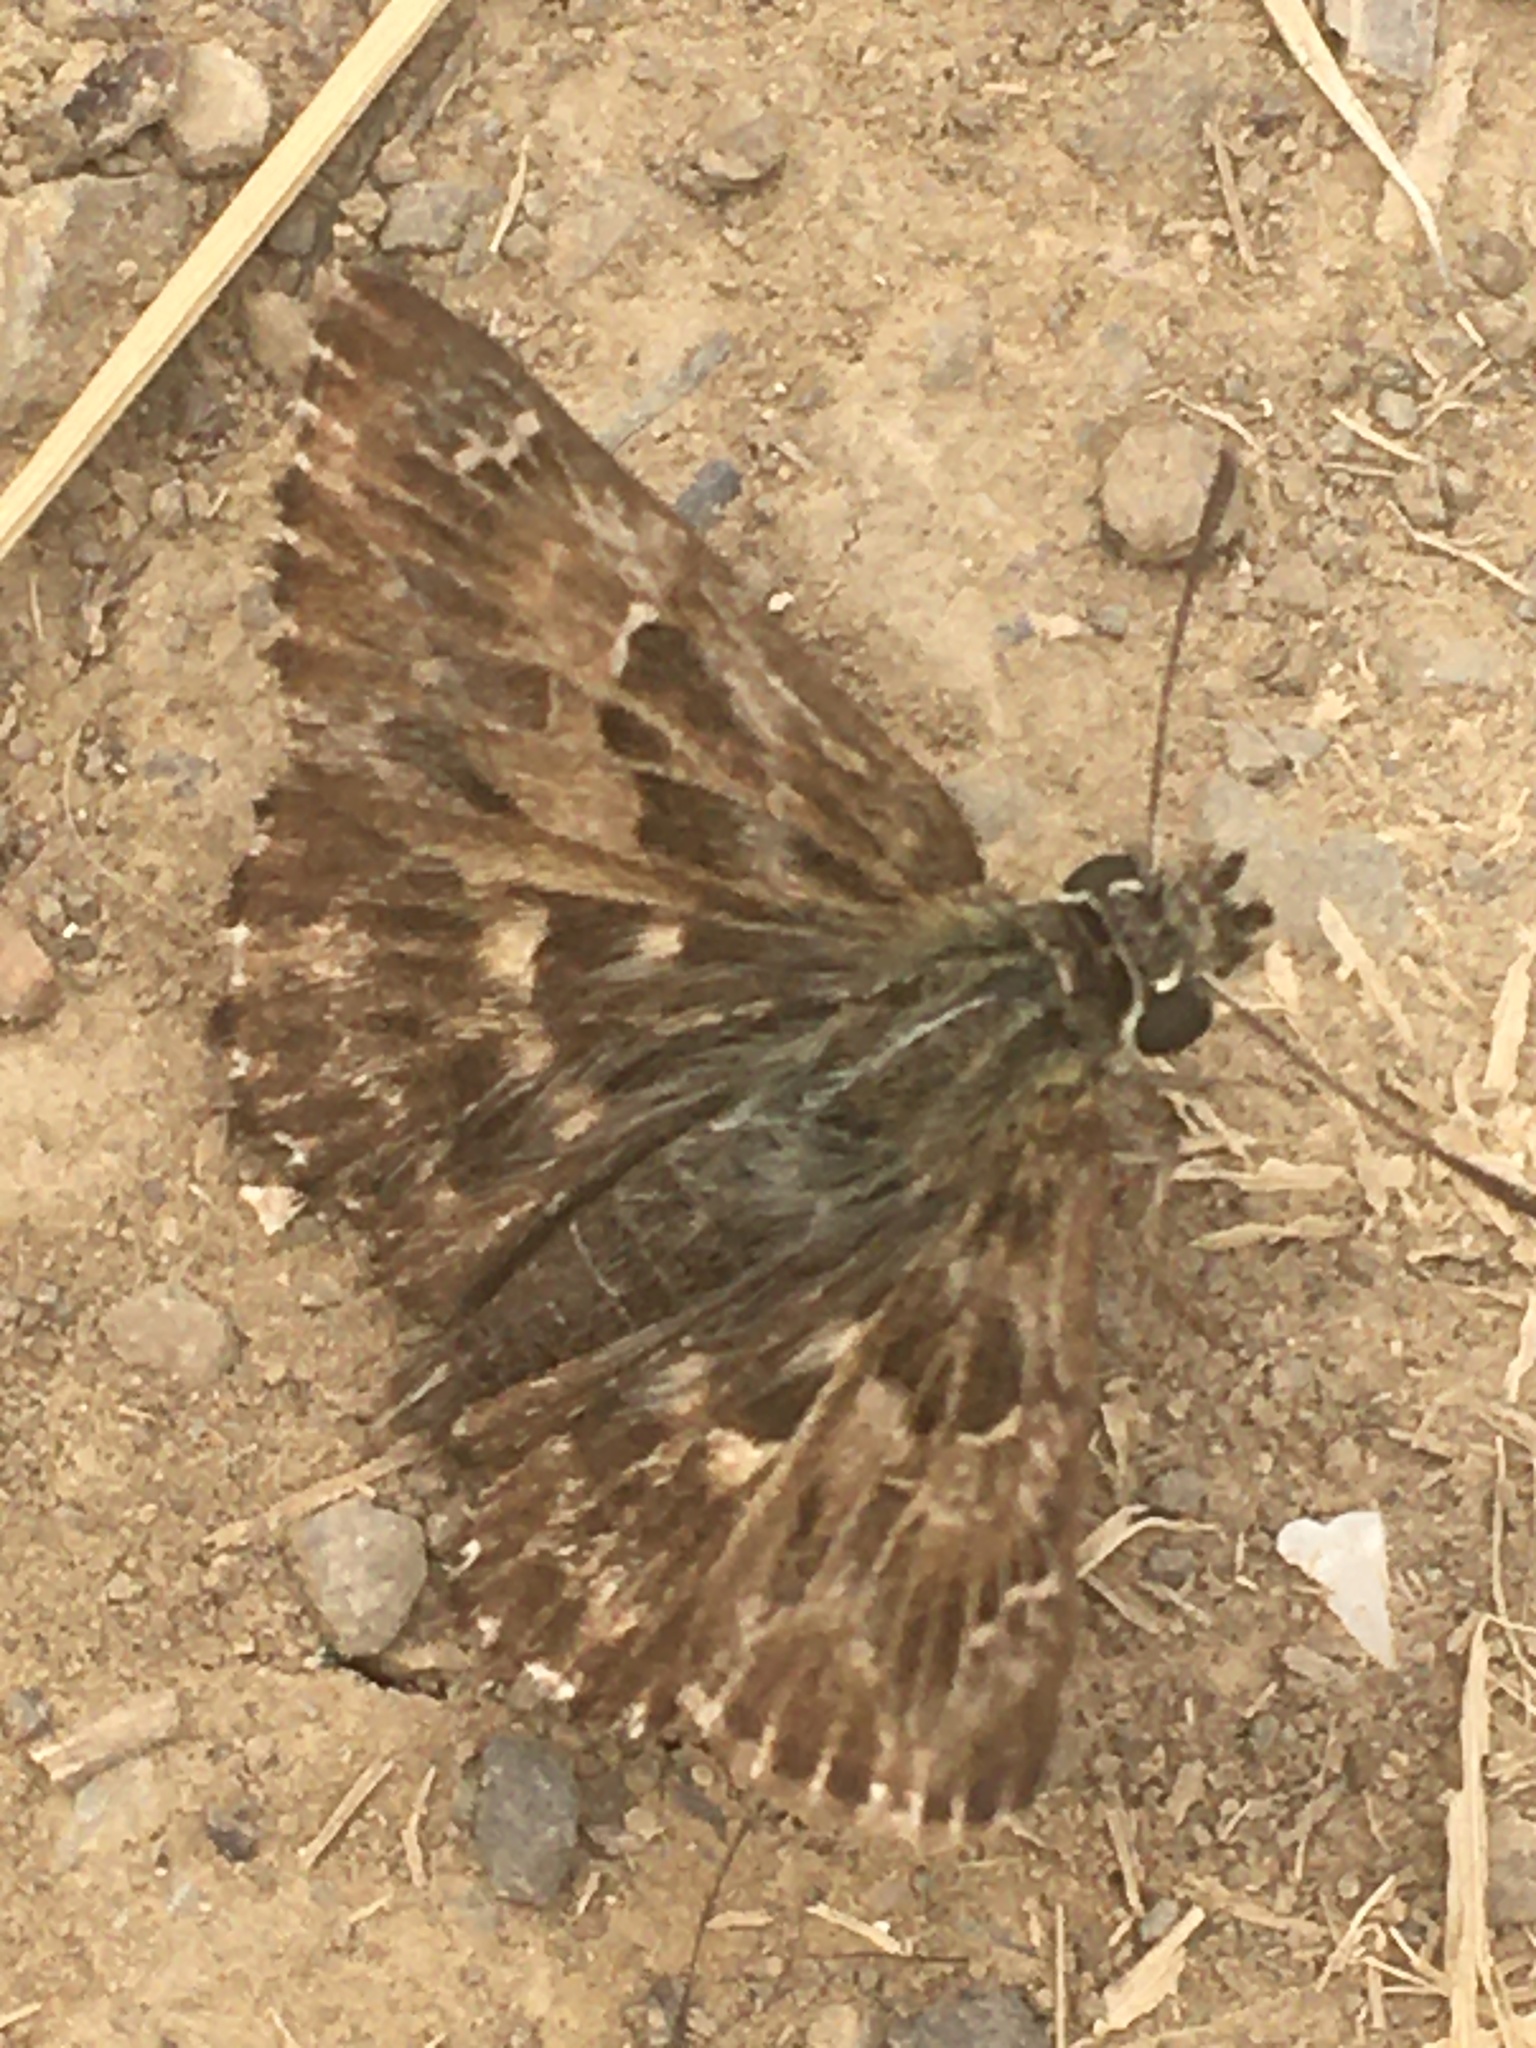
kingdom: Animalia
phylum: Arthropoda
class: Insecta
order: Lepidoptera
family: Hesperiidae
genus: Carcharodus
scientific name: Carcharodus alceae
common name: Mallow skipper
